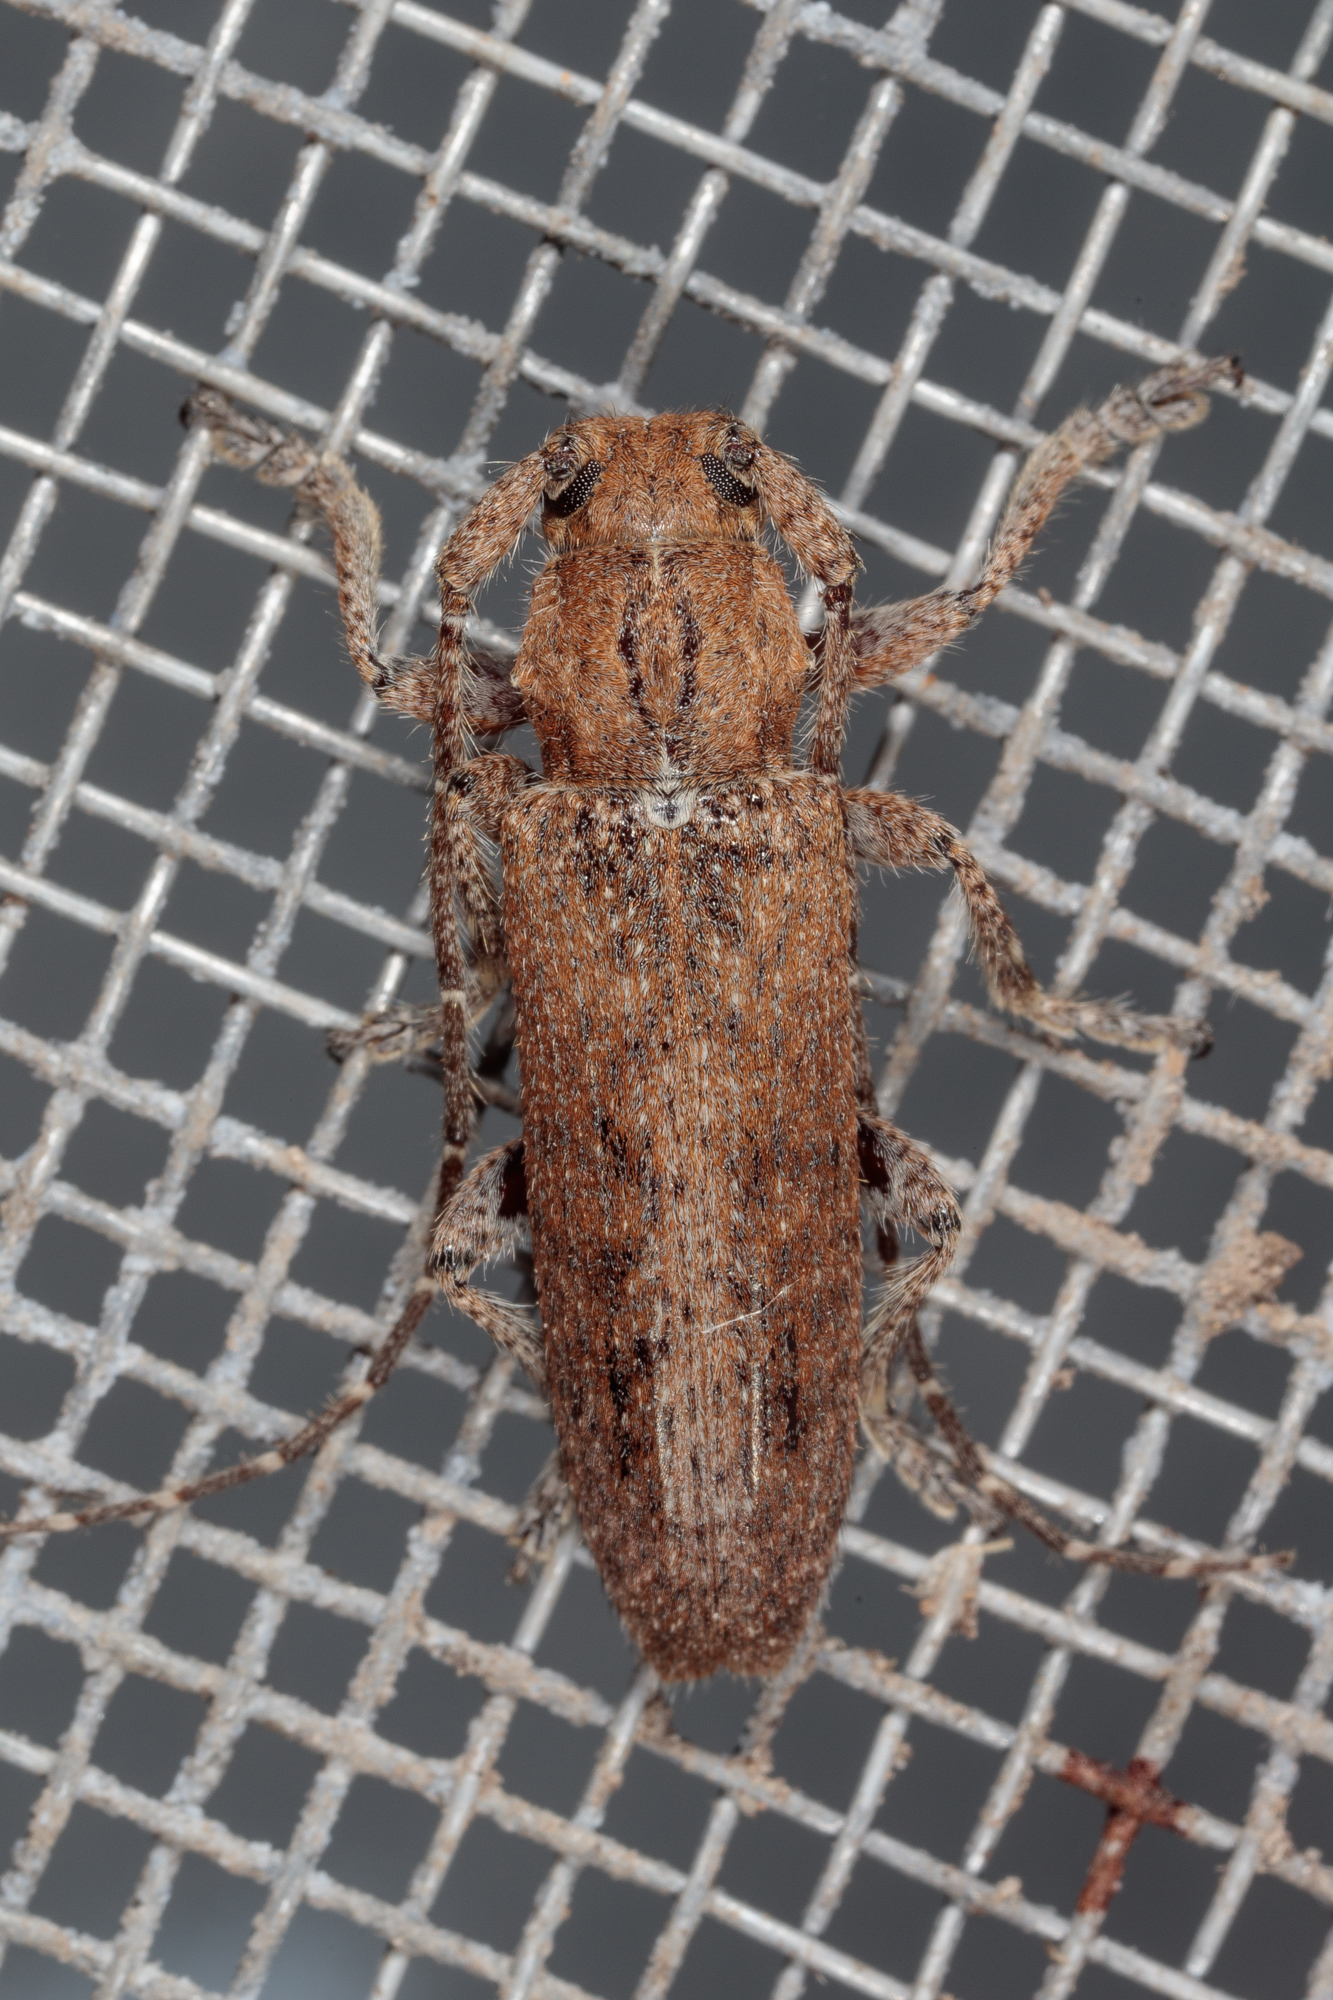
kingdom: Animalia
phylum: Arthropoda
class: Insecta
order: Coleoptera
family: Cerambycidae
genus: Ataxia
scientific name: Ataxia crypta
